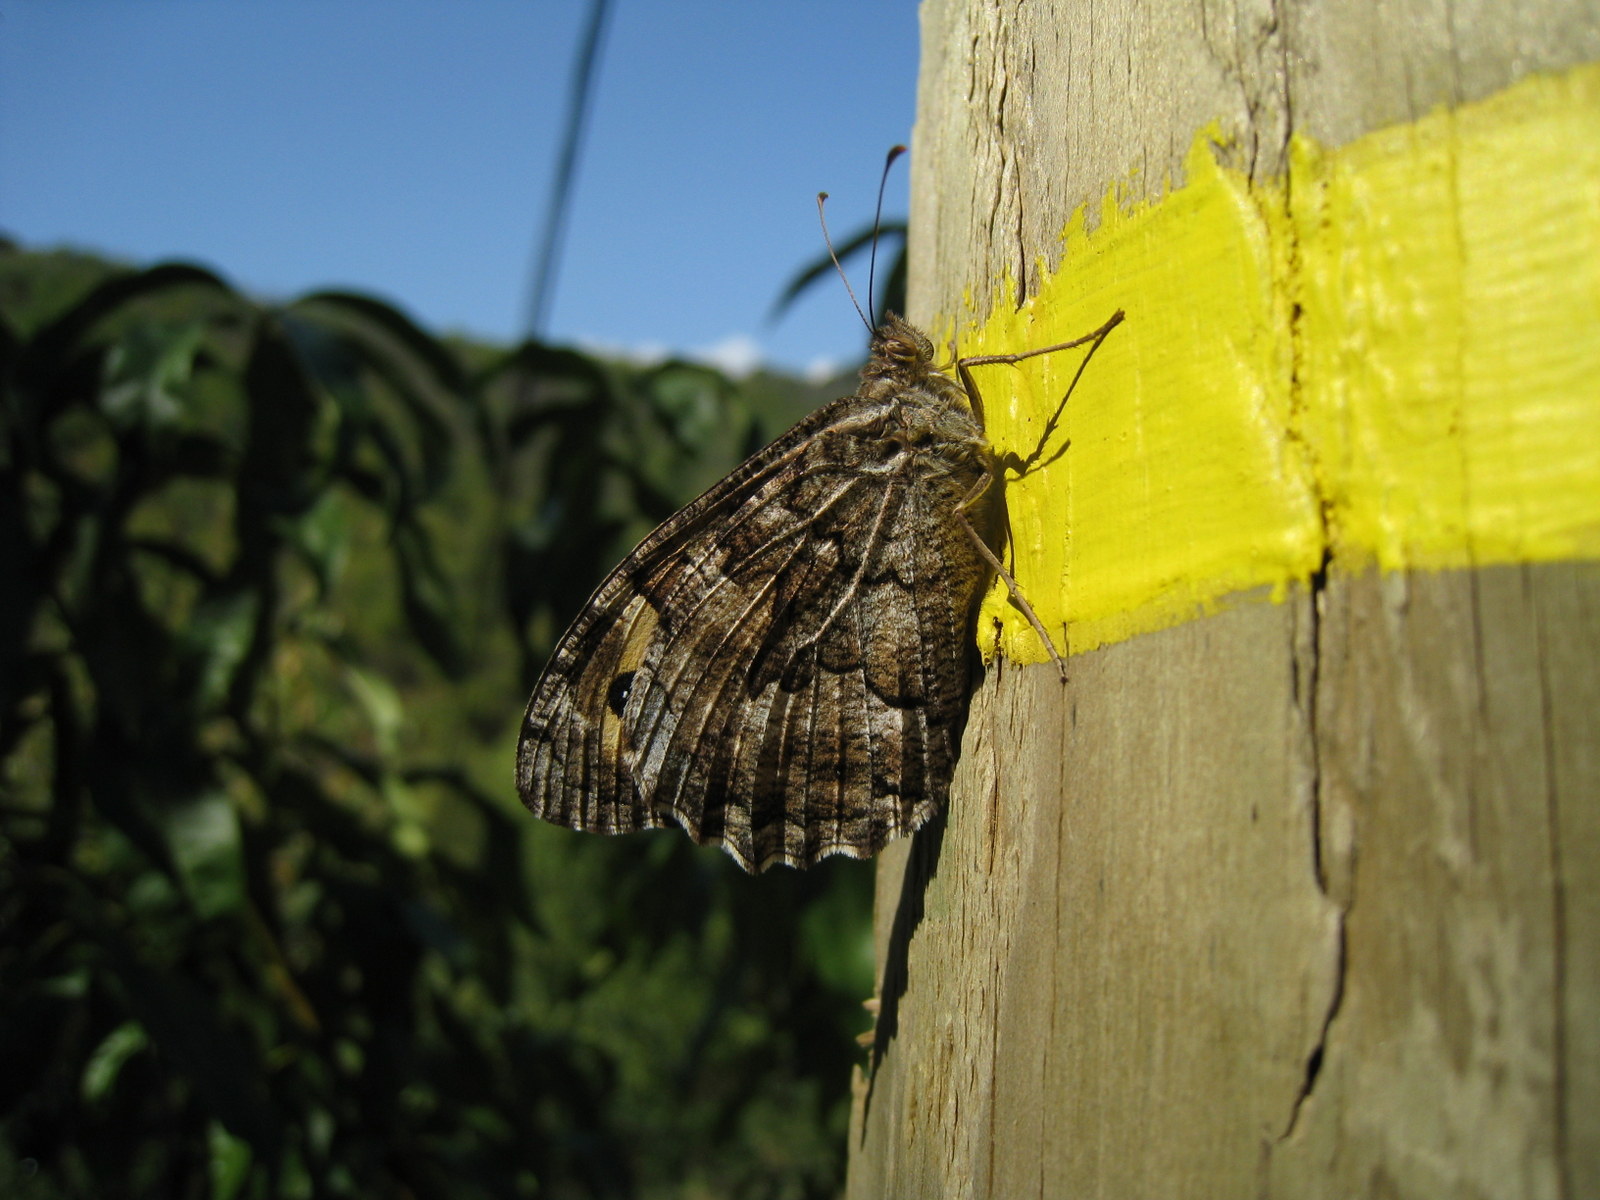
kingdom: Animalia
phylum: Arthropoda
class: Insecta
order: Lepidoptera
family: Nymphalidae
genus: Hipparchia
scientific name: Hipparchia semele
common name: Grayling
